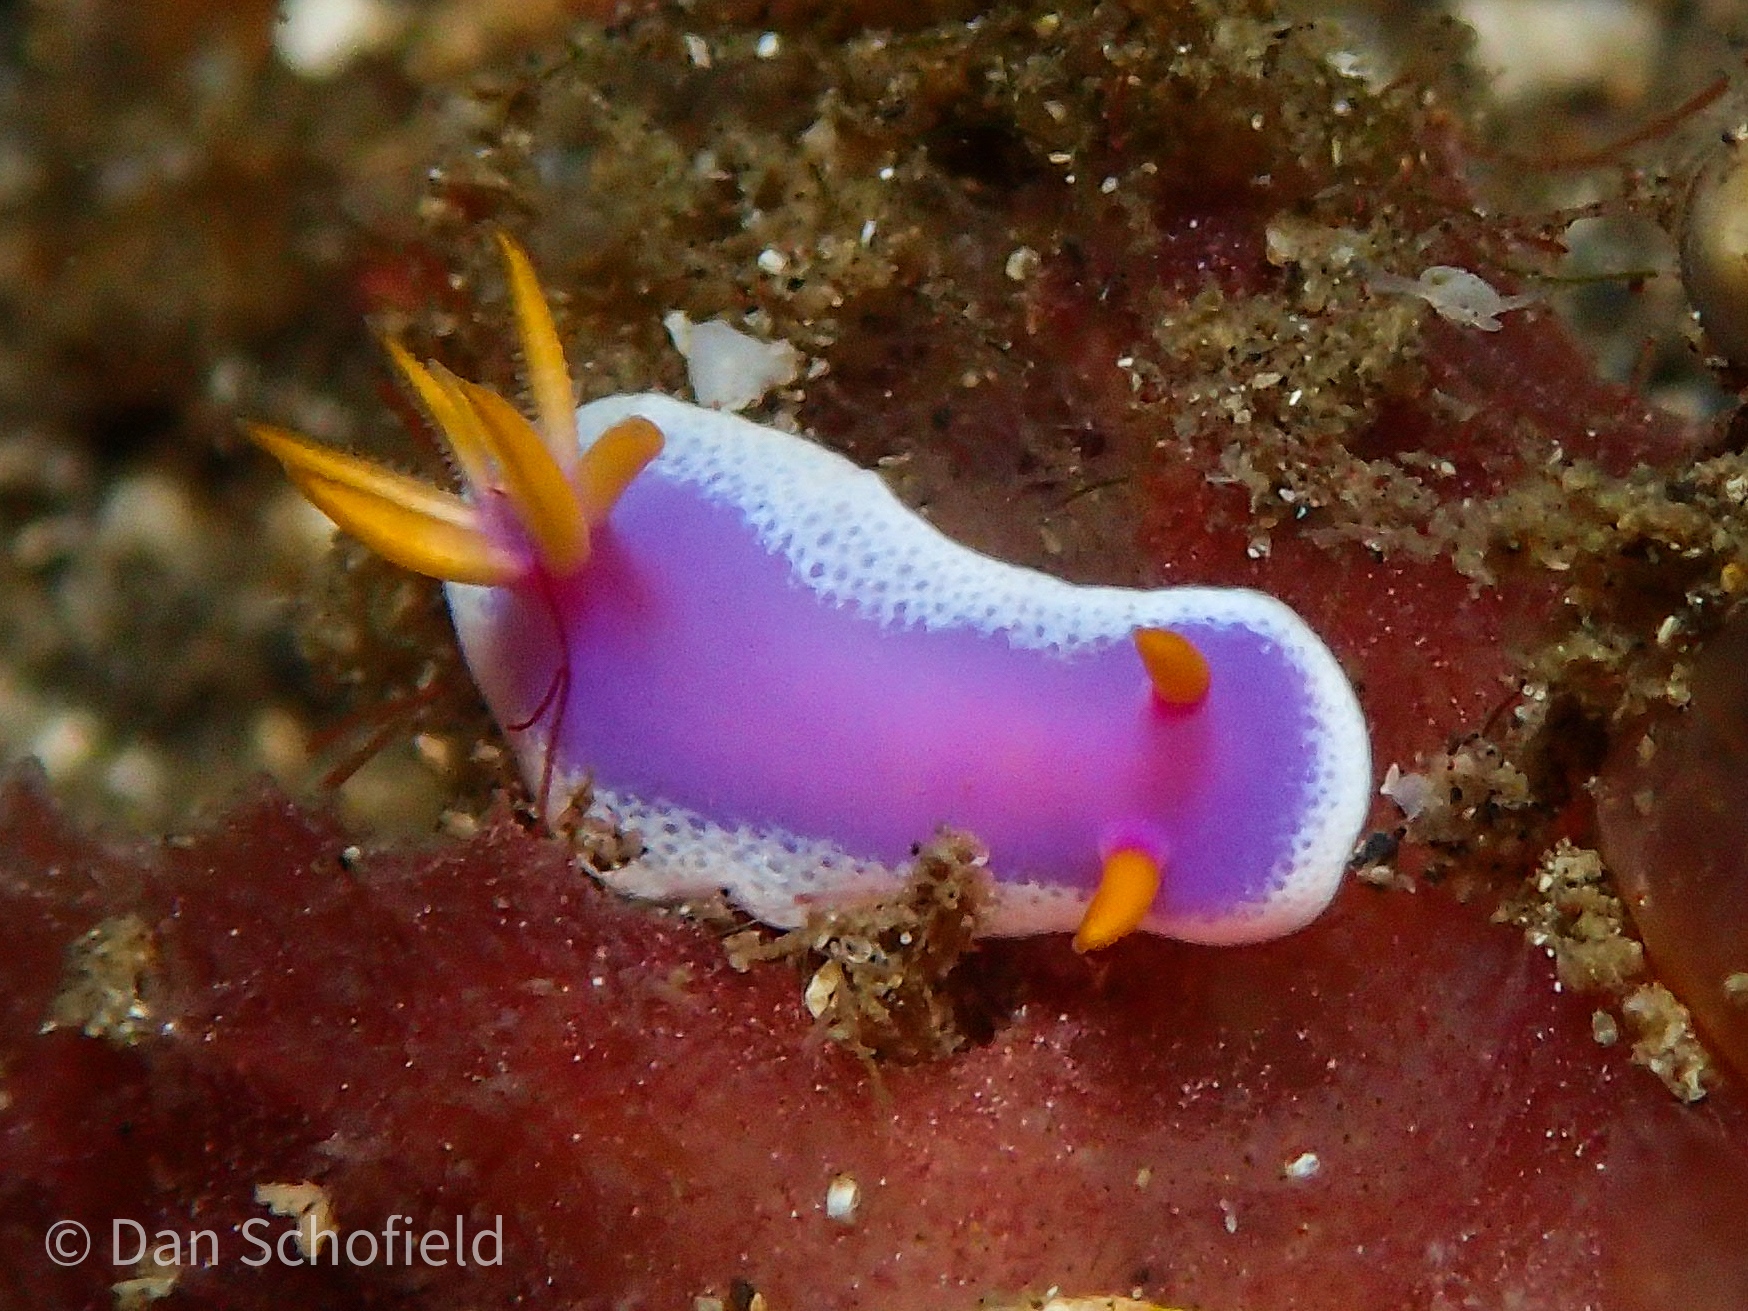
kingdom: Animalia
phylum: Mollusca
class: Gastropoda
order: Nudibranchia
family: Chromodorididae
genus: Hypselodoris
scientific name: Hypselodoris apolegma
